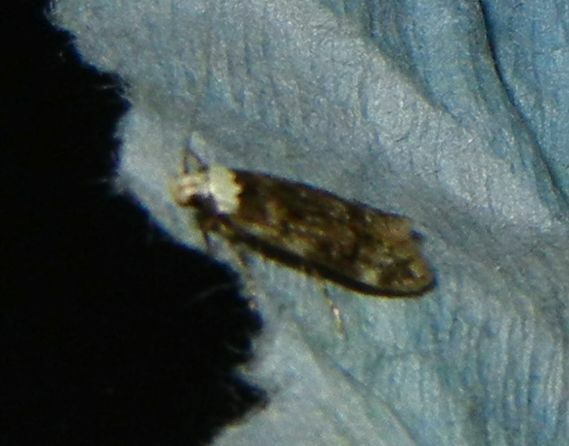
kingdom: Animalia
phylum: Arthropoda
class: Insecta
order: Lepidoptera
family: Oecophoridae
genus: Endrosis
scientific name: Endrosis sarcitrella
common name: White-shouldered house moth
